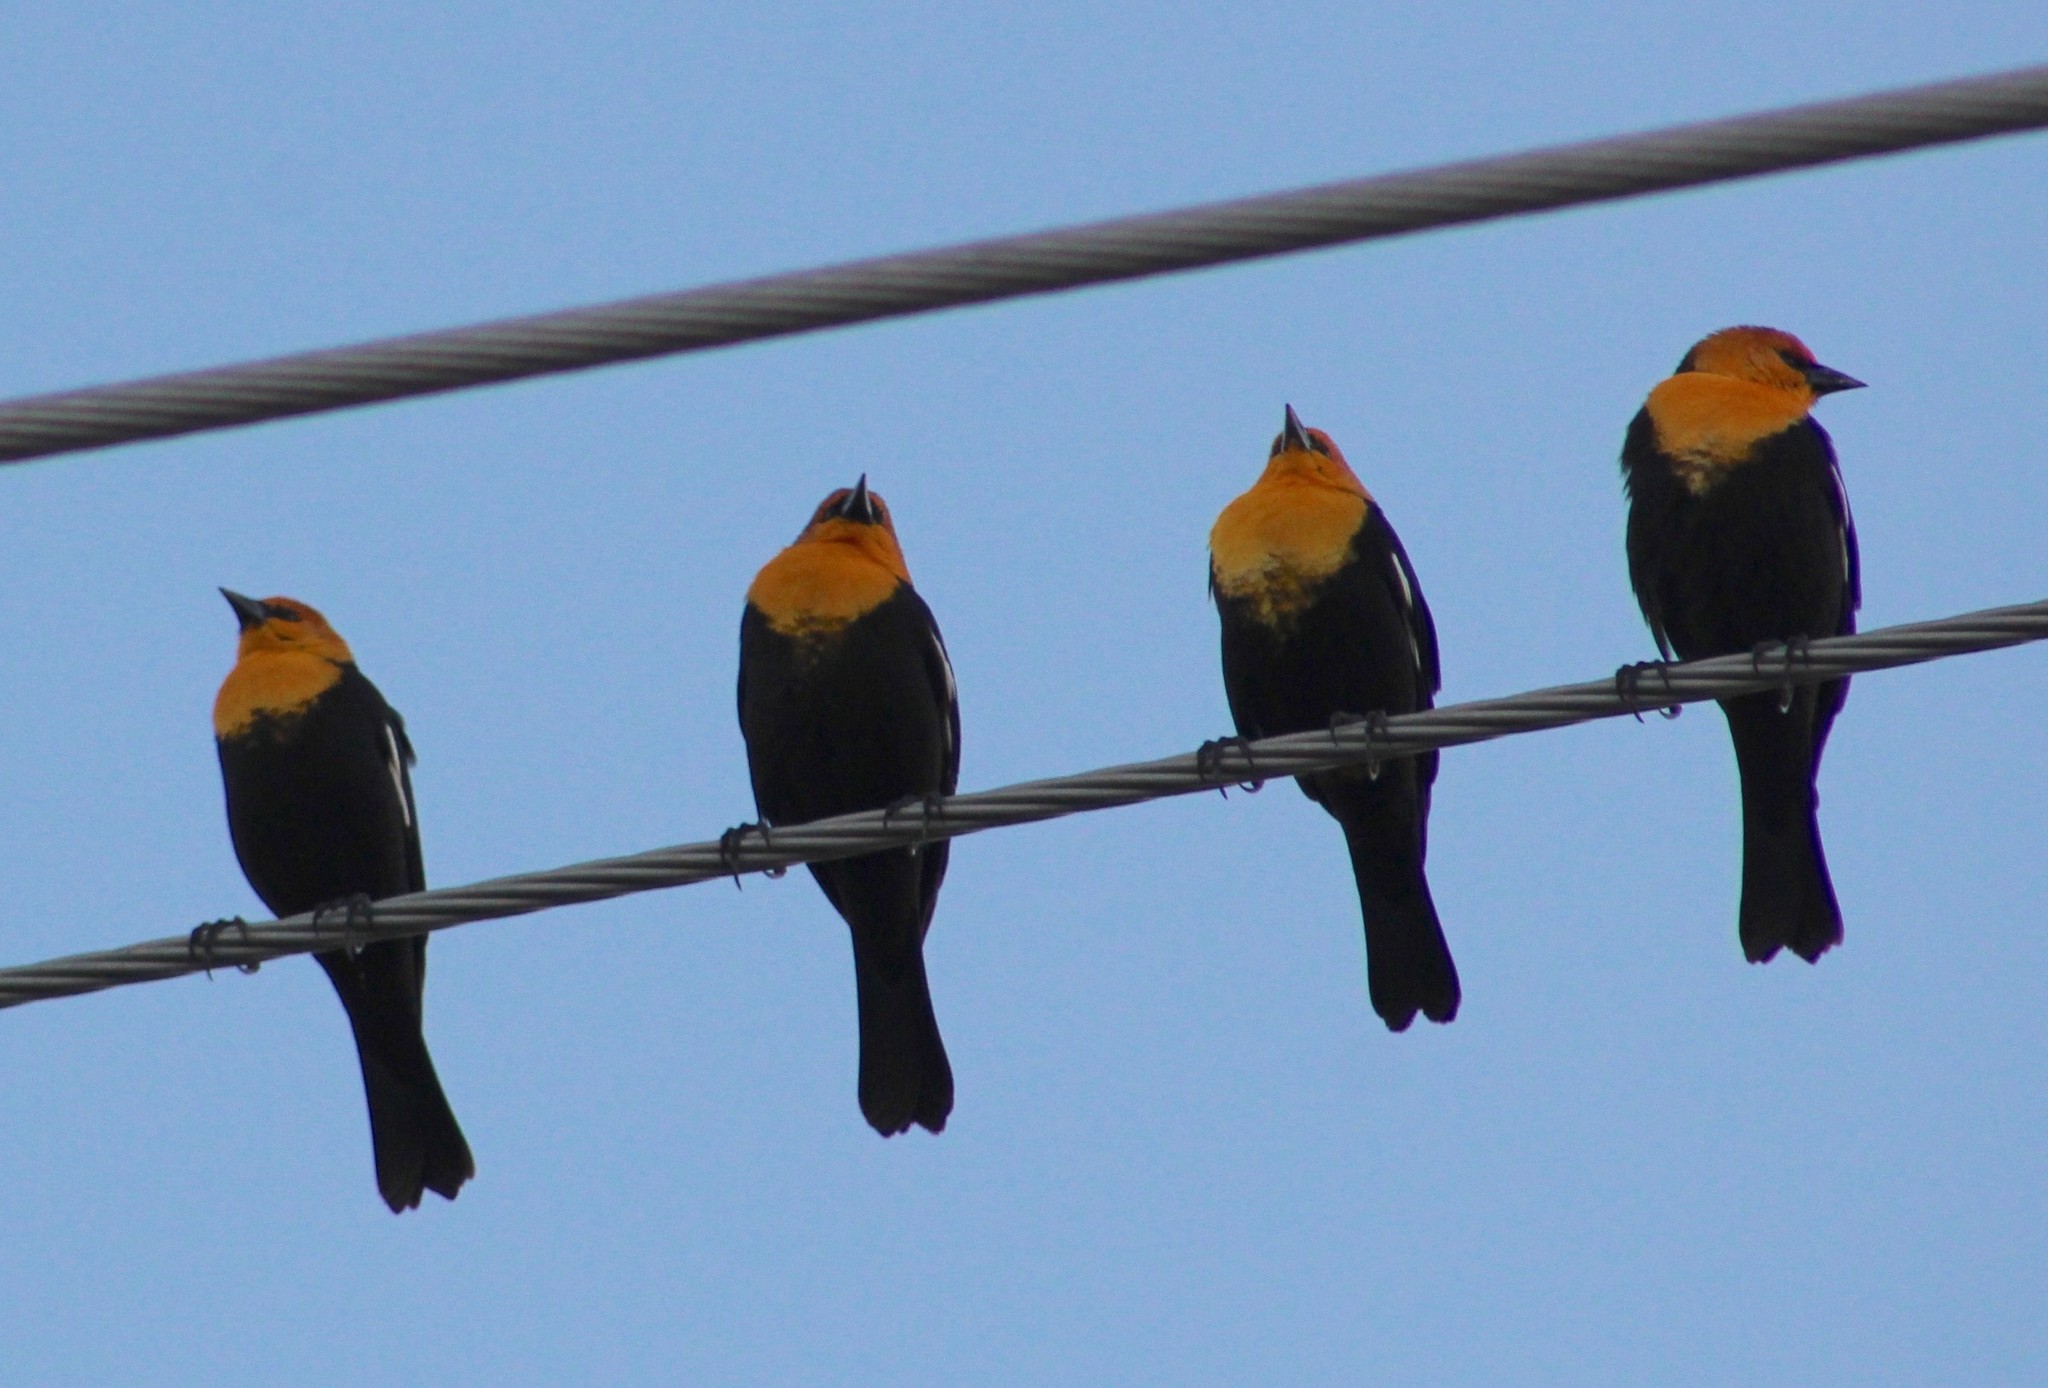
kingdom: Animalia
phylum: Chordata
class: Aves
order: Passeriformes
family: Icteridae
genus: Xanthocephalus
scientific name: Xanthocephalus xanthocephalus
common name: Yellow-headed blackbird
